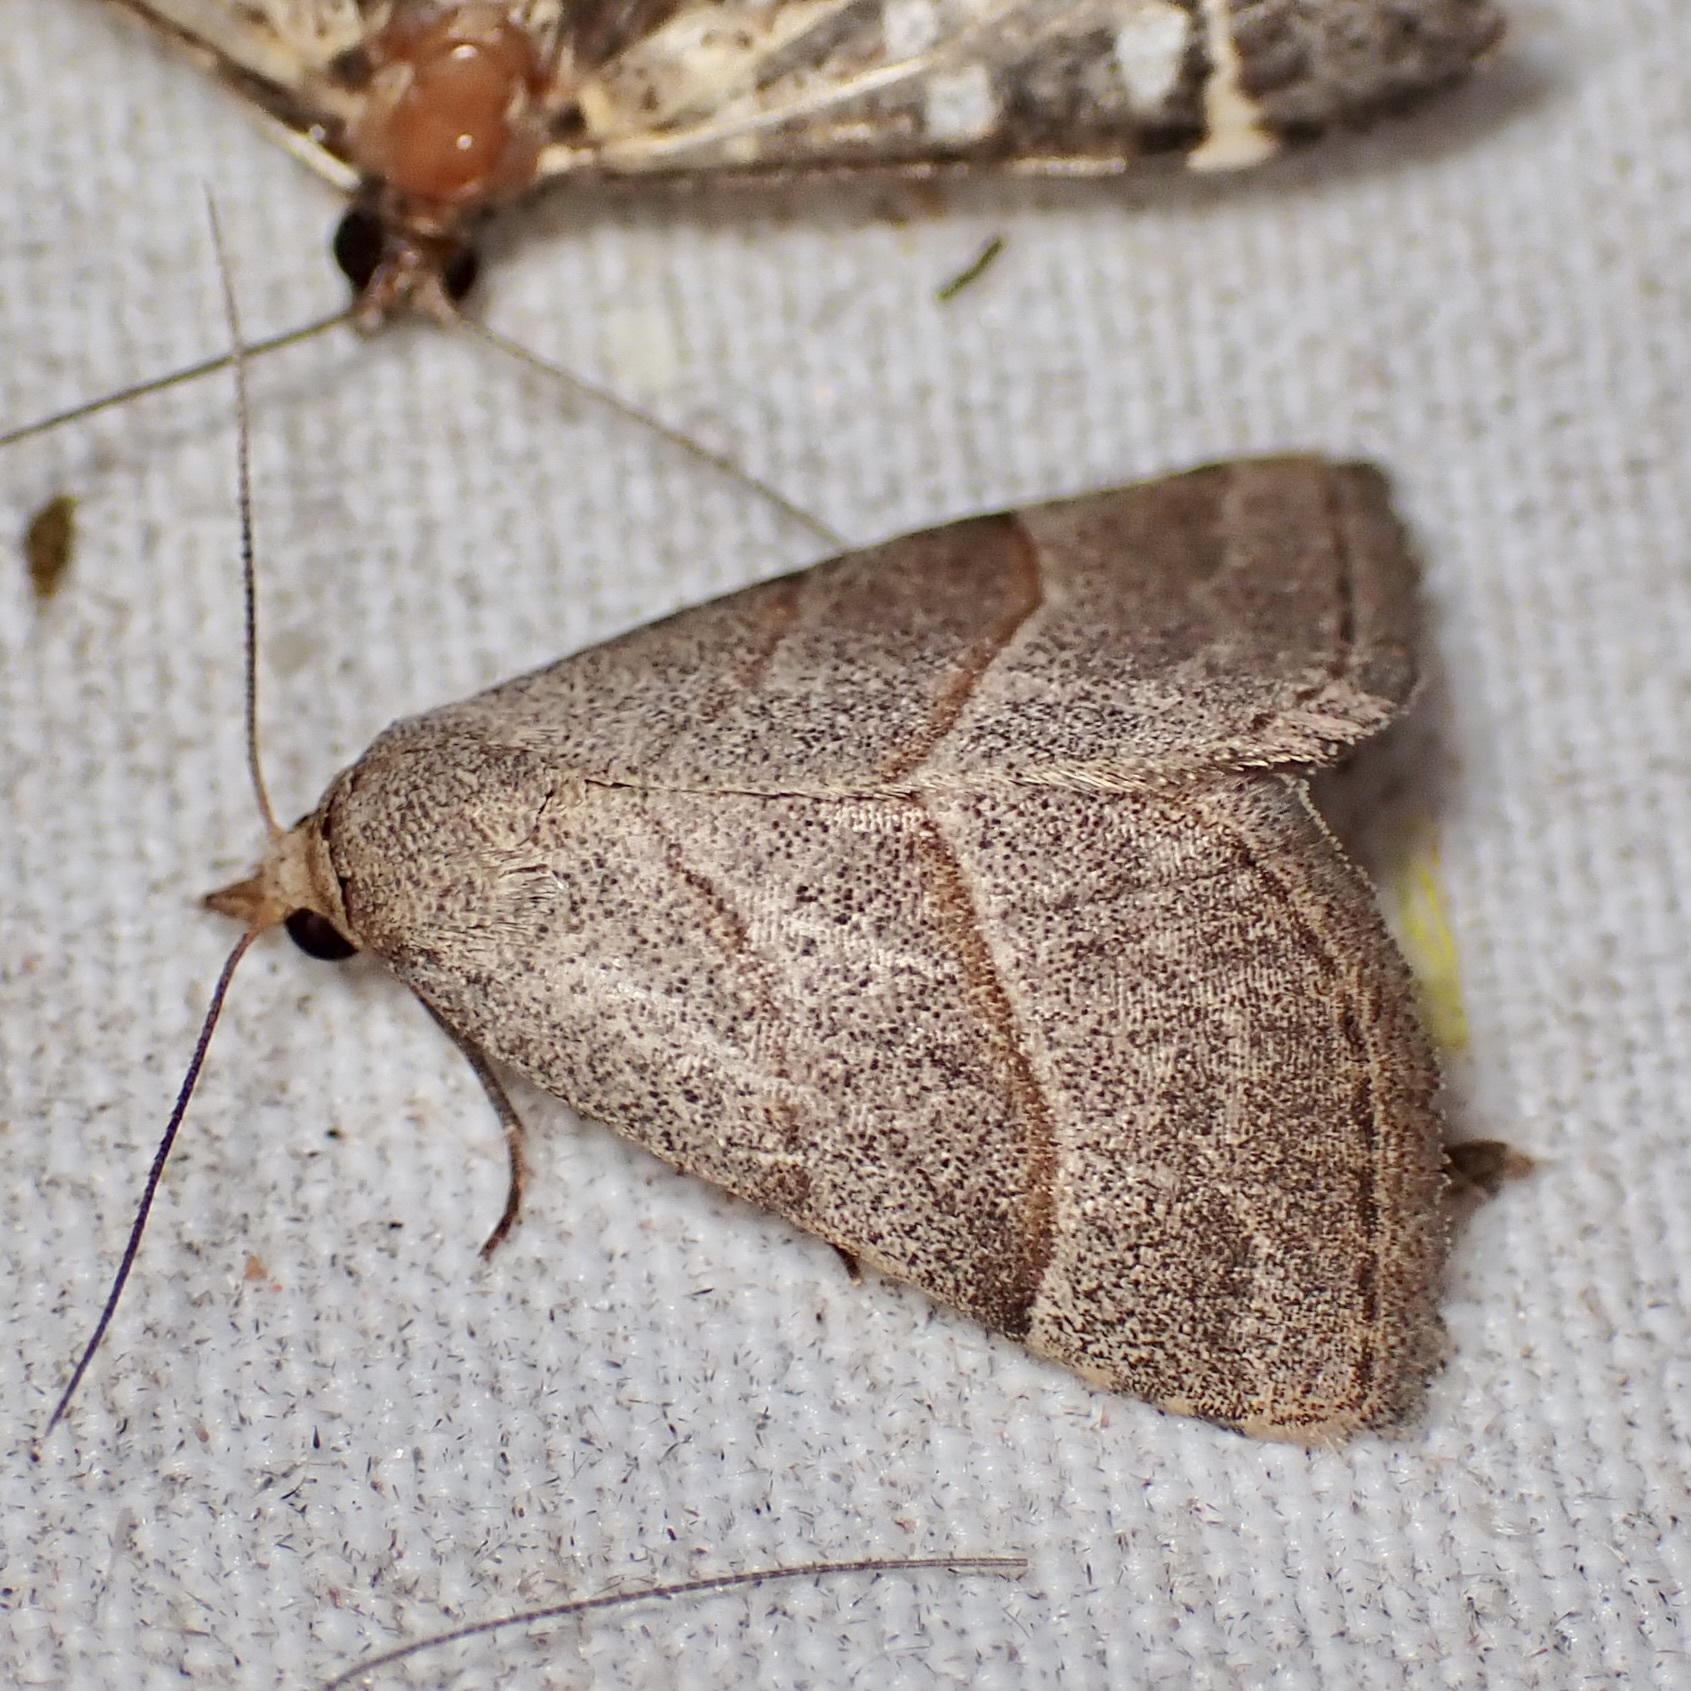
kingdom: Animalia
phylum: Arthropoda
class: Insecta
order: Lepidoptera
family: Erebidae
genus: Zelicodes
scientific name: Zelicodes linearis
